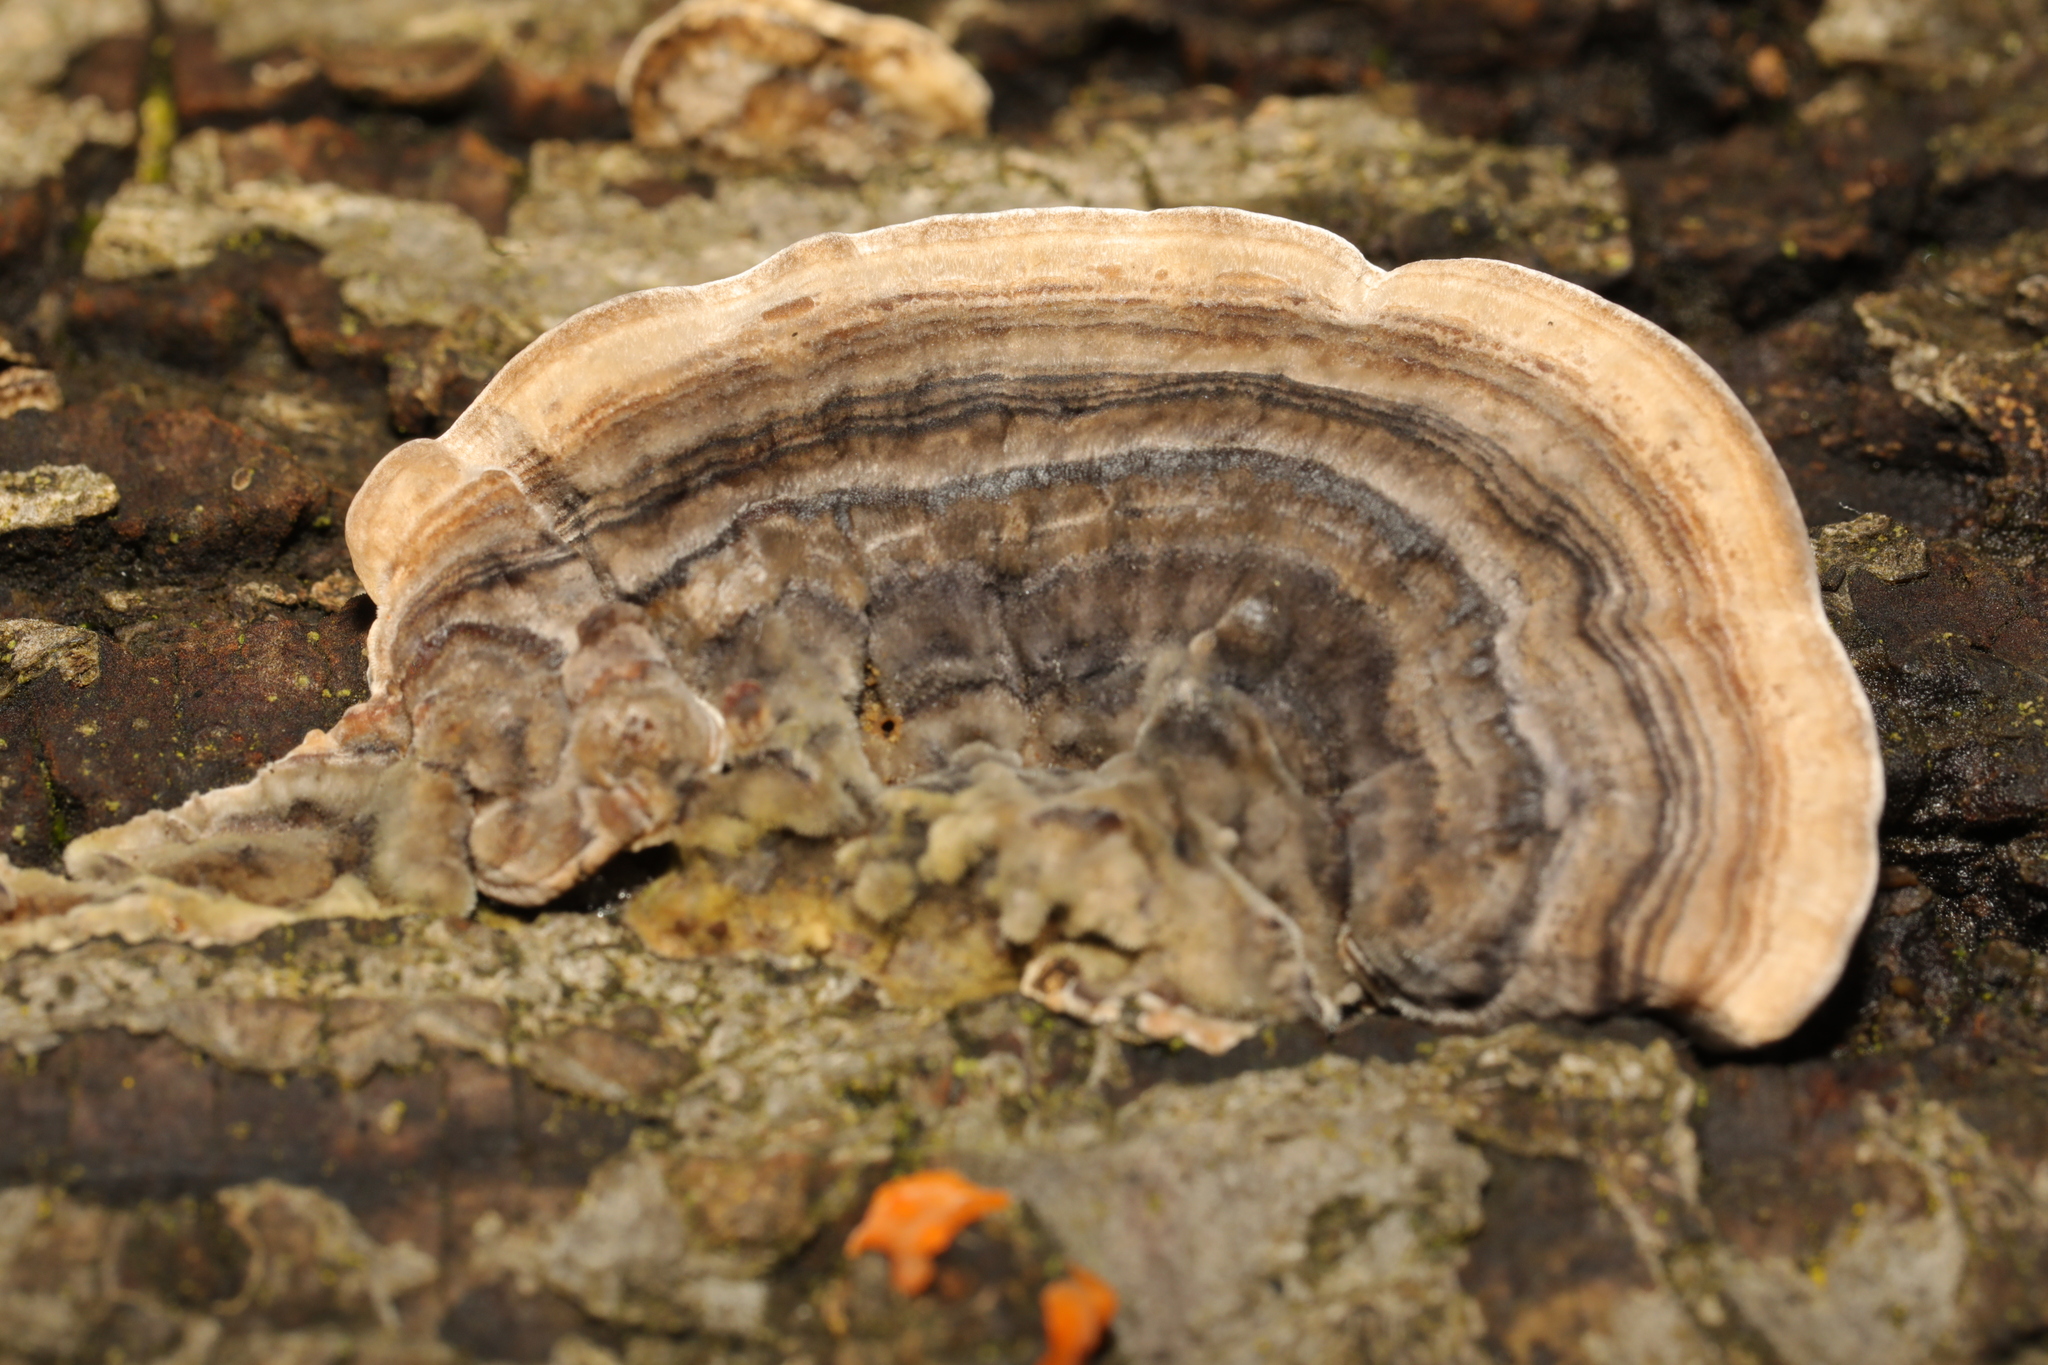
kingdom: Fungi
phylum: Basidiomycota
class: Agaricomycetes
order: Polyporales
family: Polyporaceae
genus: Trametes
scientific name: Trametes versicolor
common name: Turkeytail
